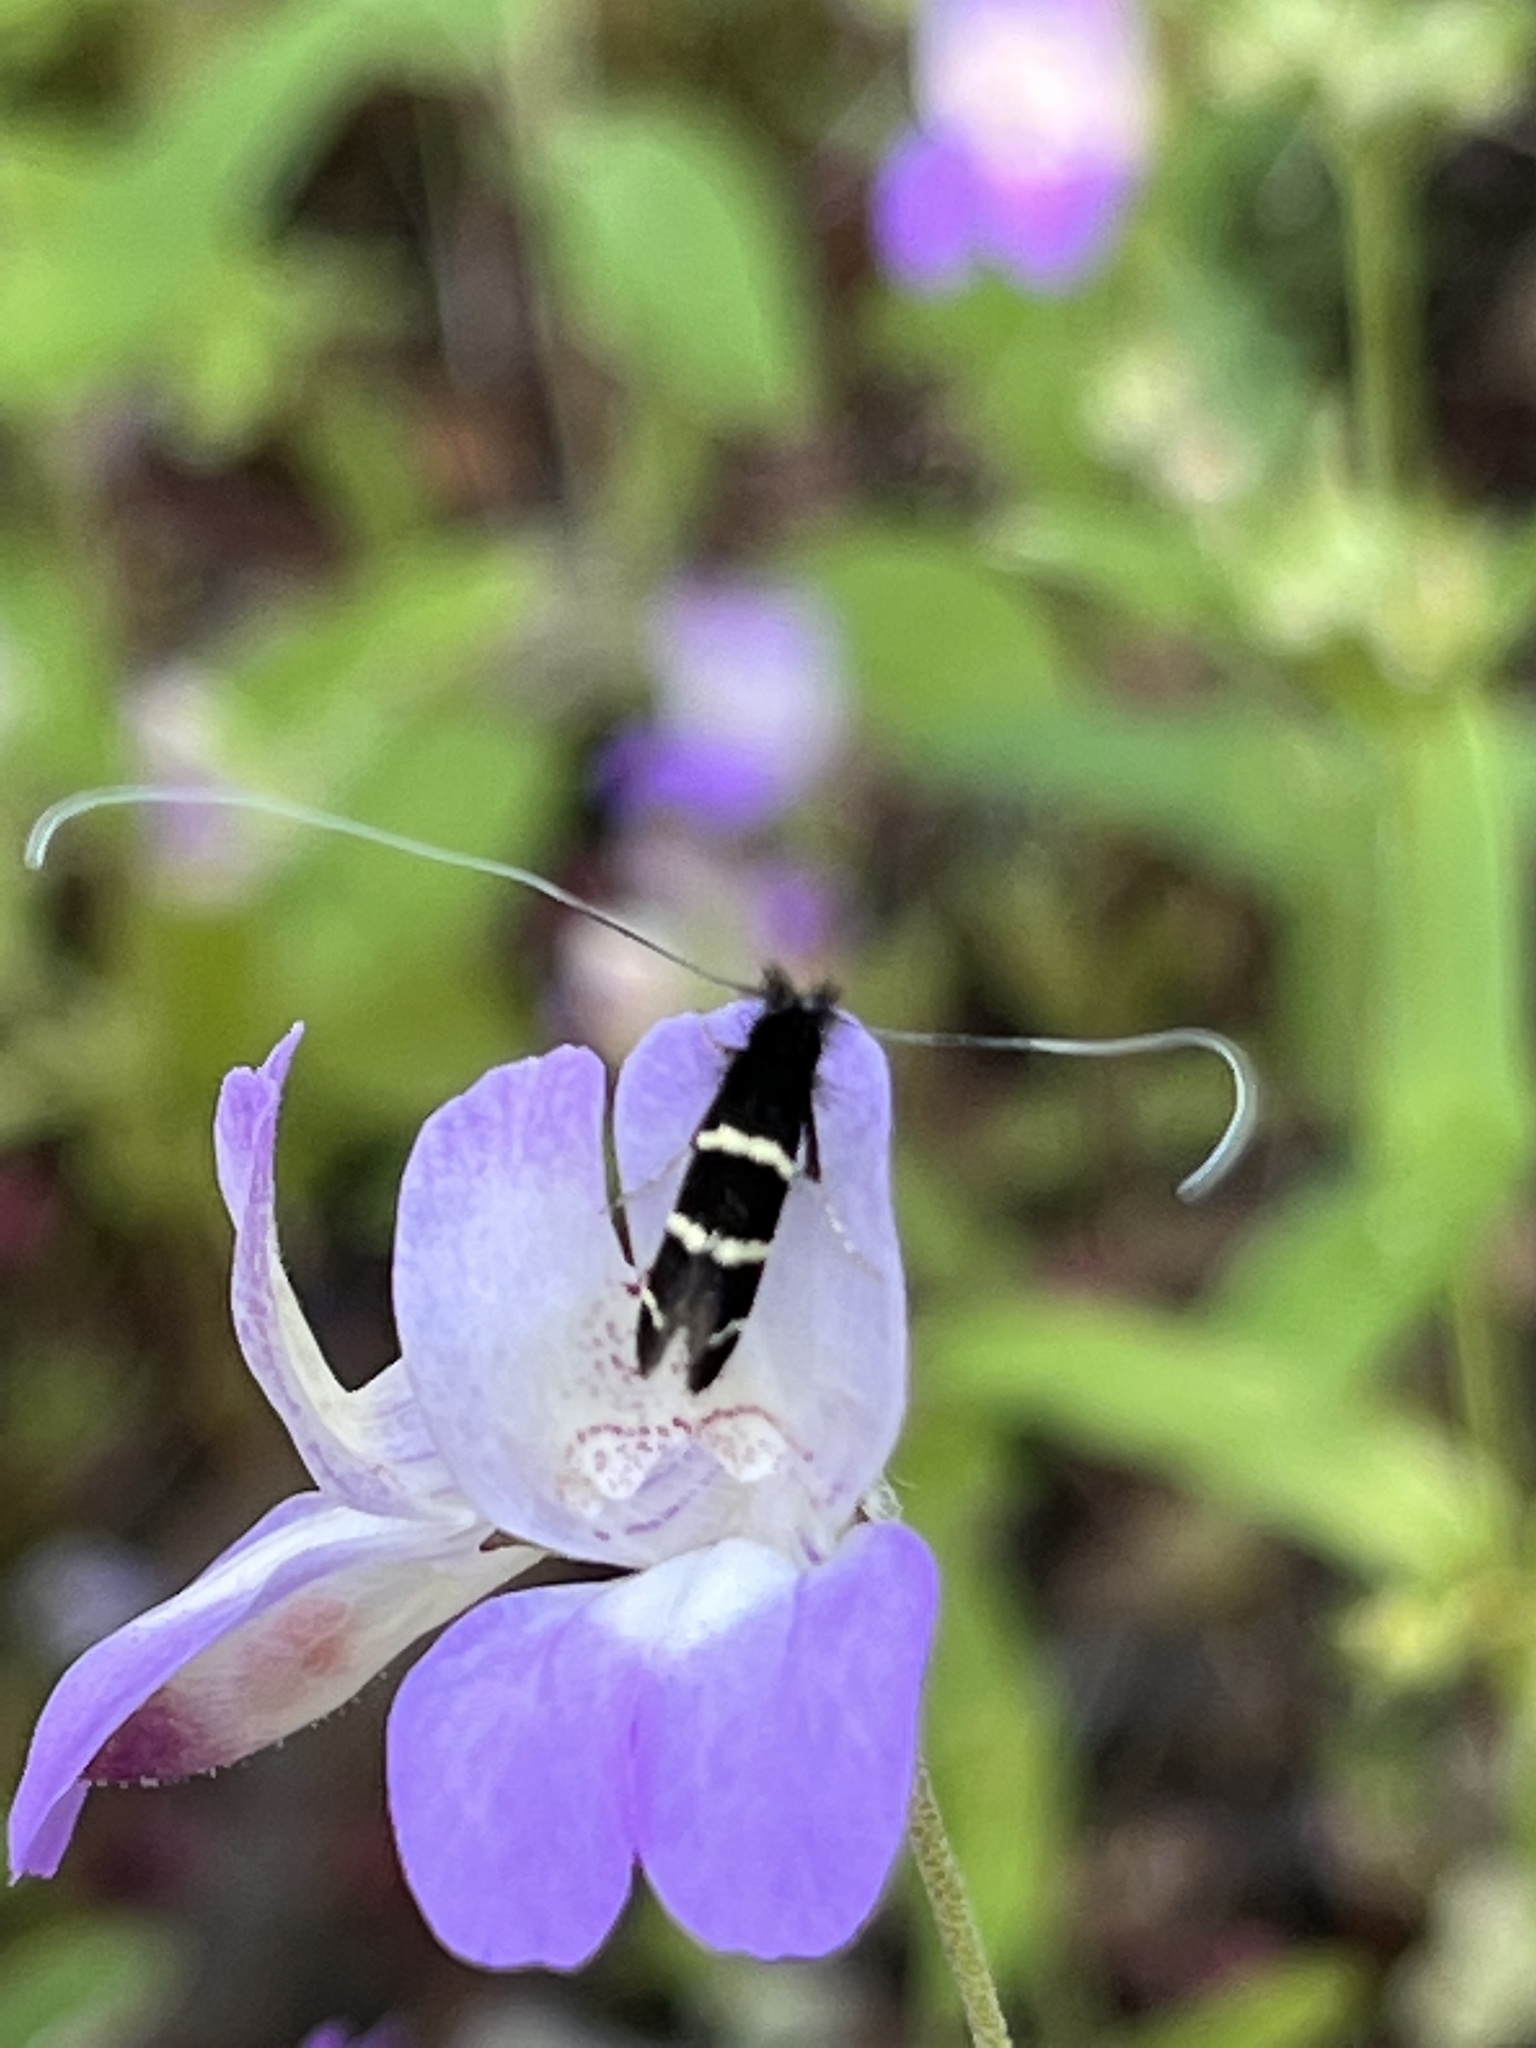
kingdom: Animalia
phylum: Arthropoda
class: Insecta
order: Lepidoptera
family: Adelidae
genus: Adela
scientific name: Adela trigrapha
